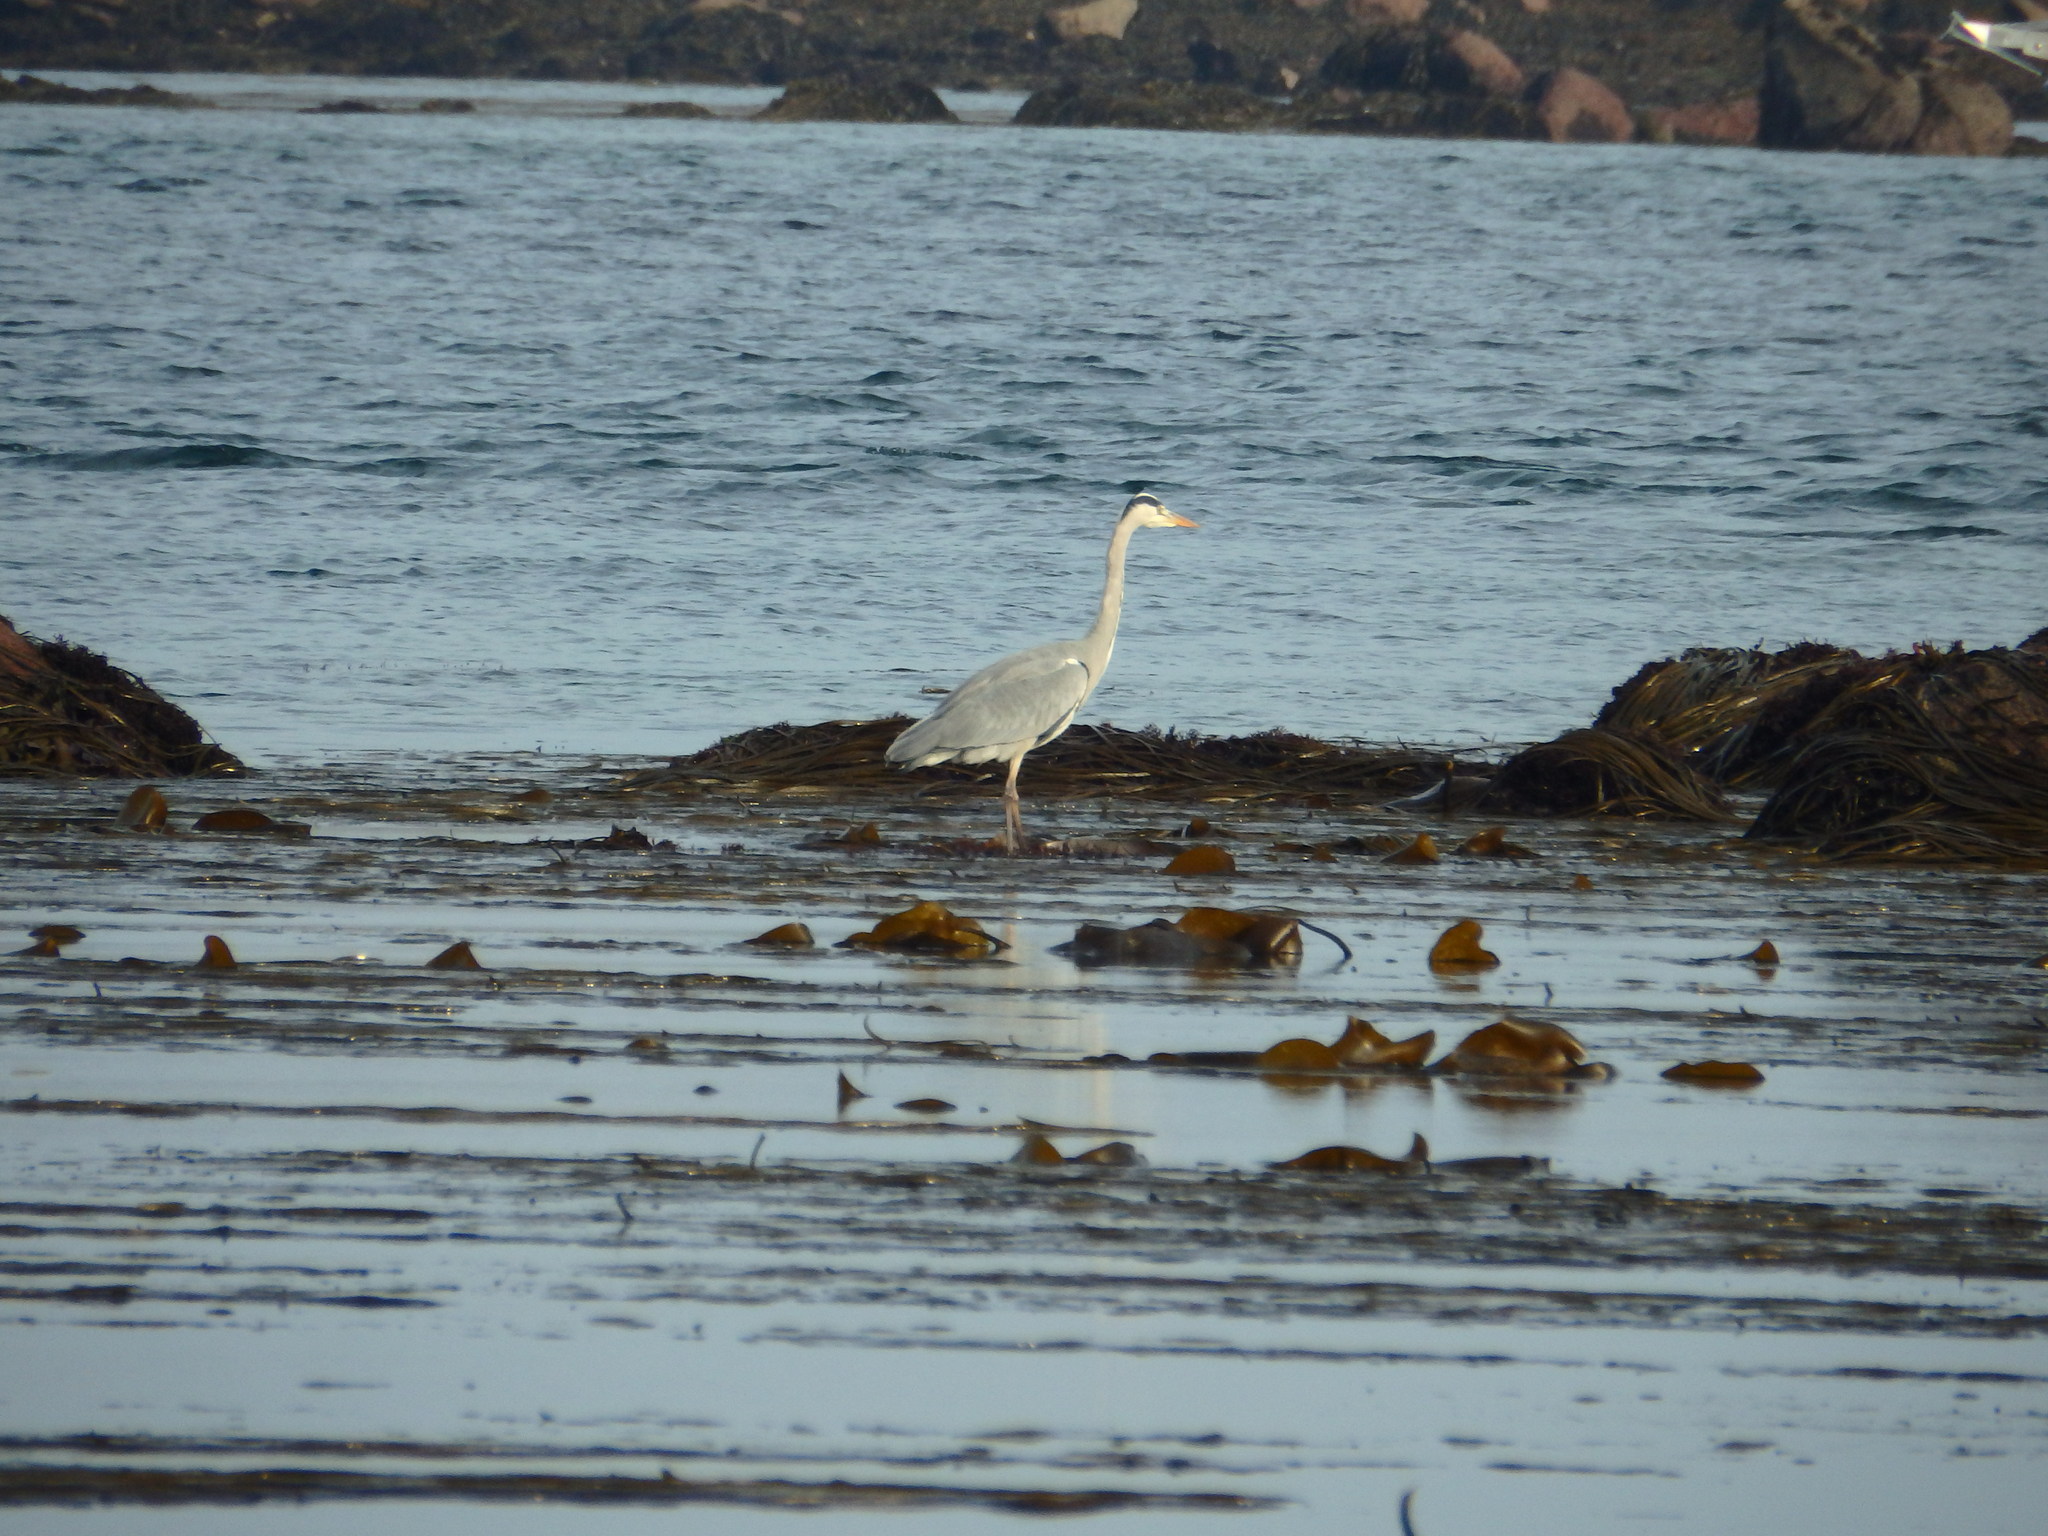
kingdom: Animalia
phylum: Chordata
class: Aves
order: Pelecaniformes
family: Ardeidae
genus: Ardea
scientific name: Ardea cinerea
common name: Grey heron
